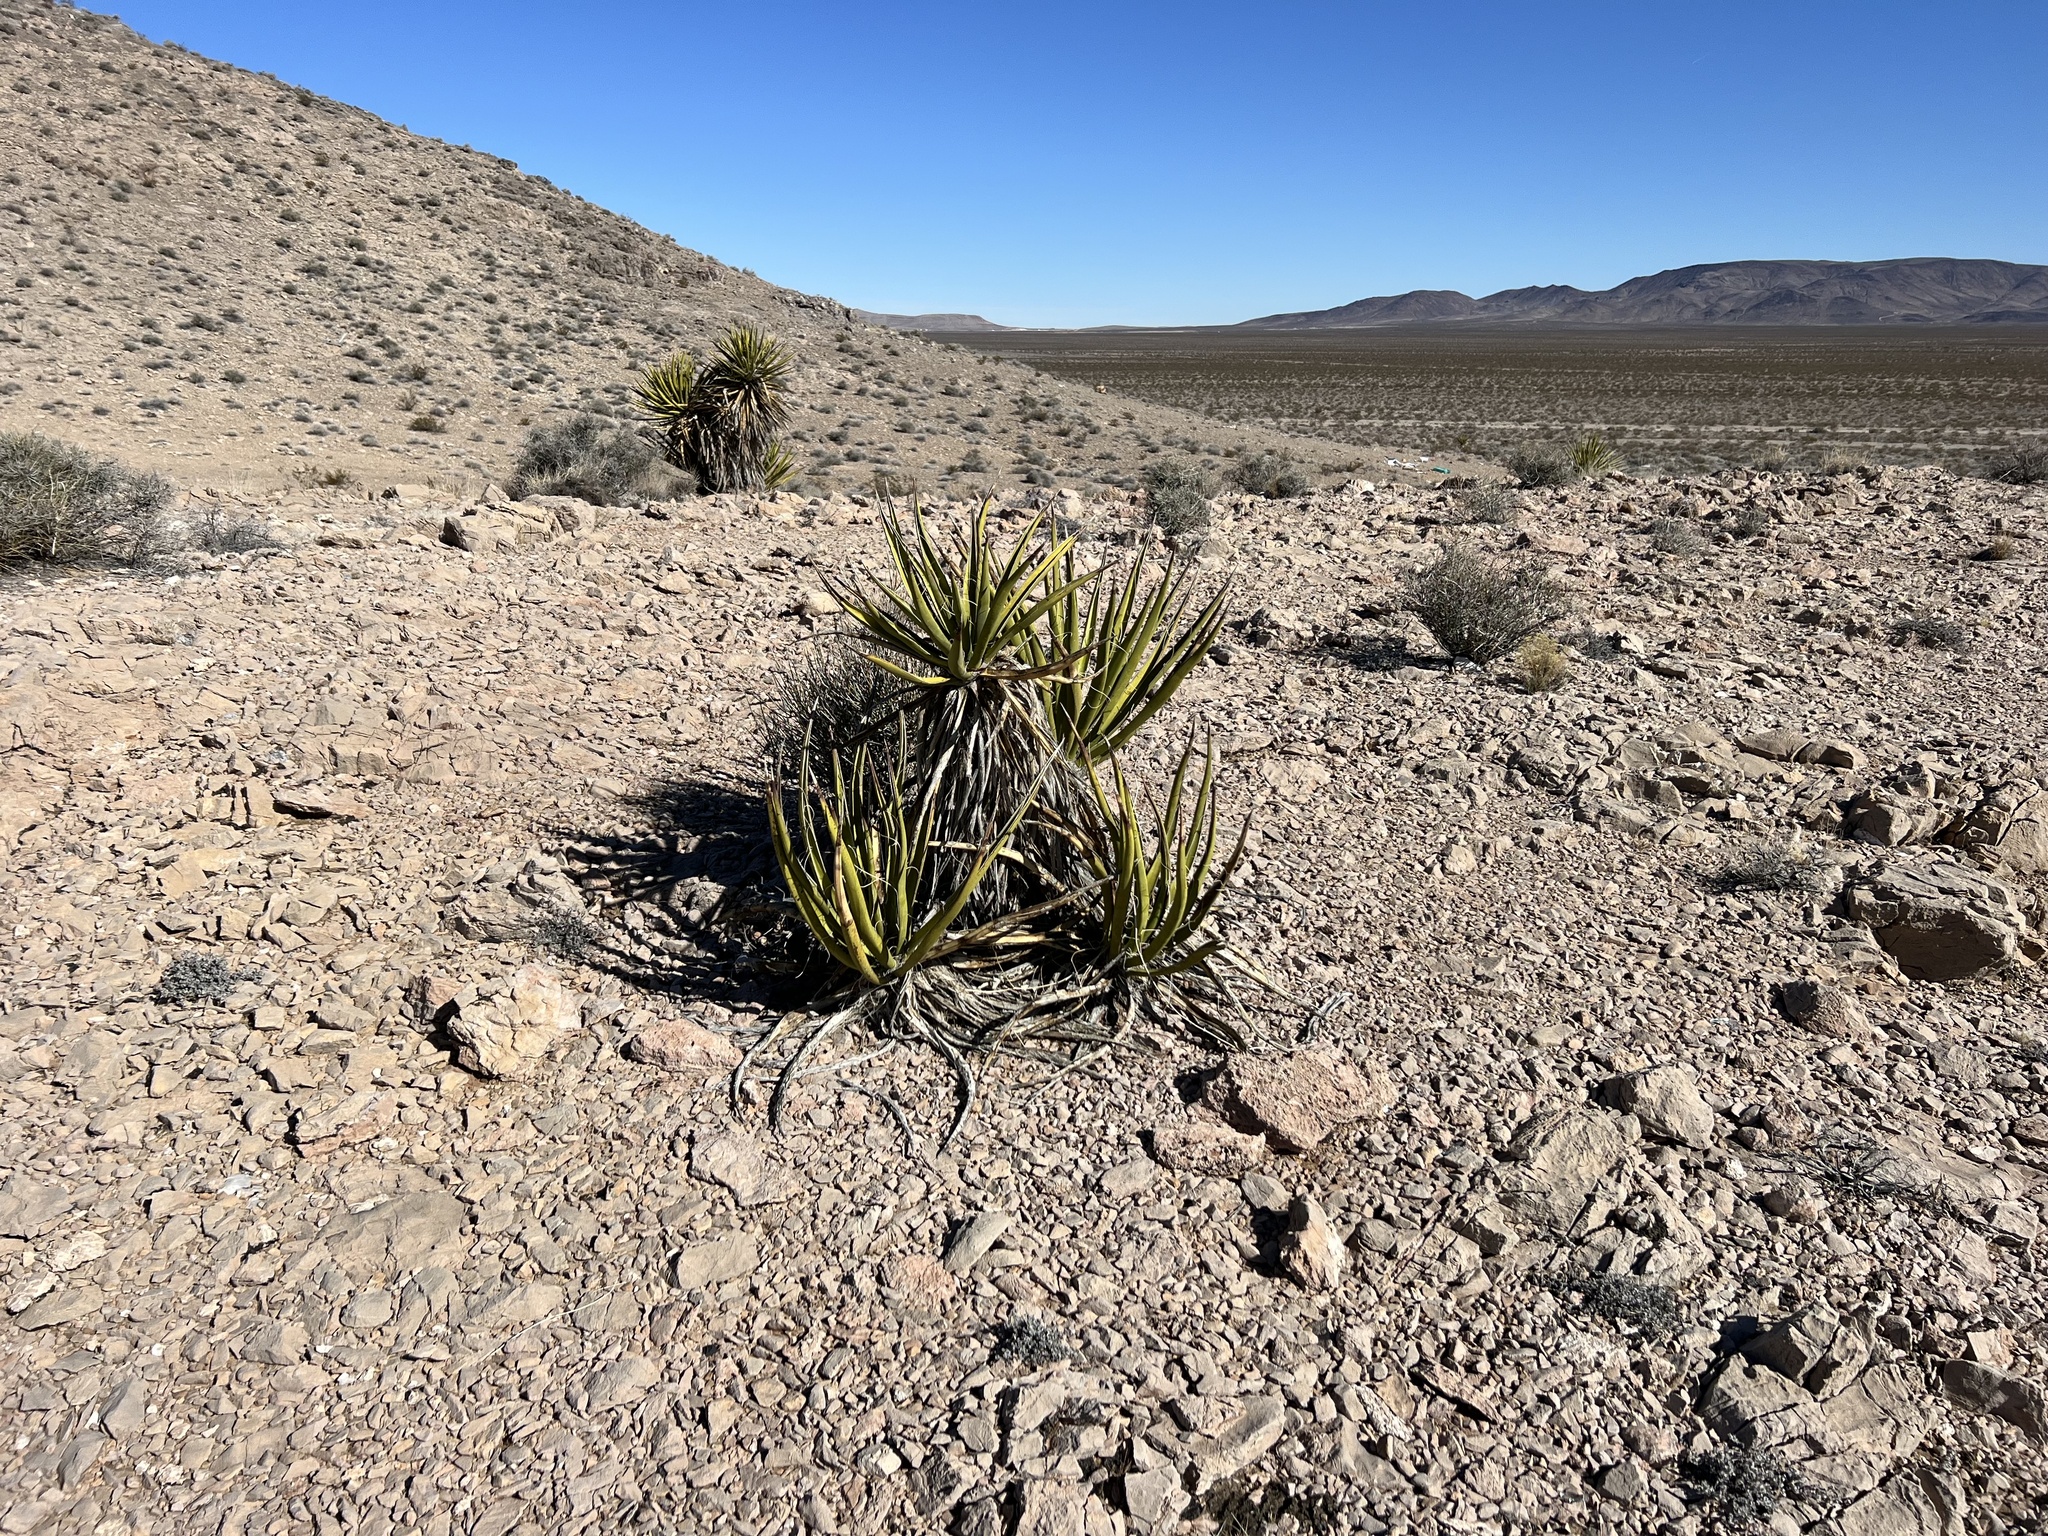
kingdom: Plantae
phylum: Tracheophyta
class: Liliopsida
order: Asparagales
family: Asparagaceae
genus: Yucca
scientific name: Yucca schidigera
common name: Mojave yucca
